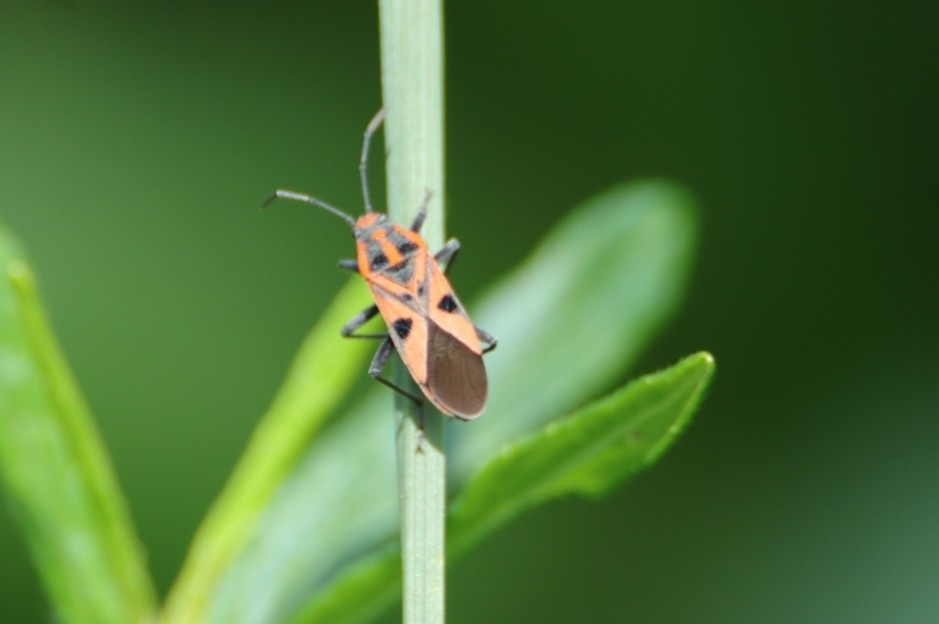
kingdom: Animalia
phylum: Arthropoda
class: Insecta
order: Hemiptera
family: Lygaeidae
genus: Spilostethus
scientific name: Spilostethus hospes
